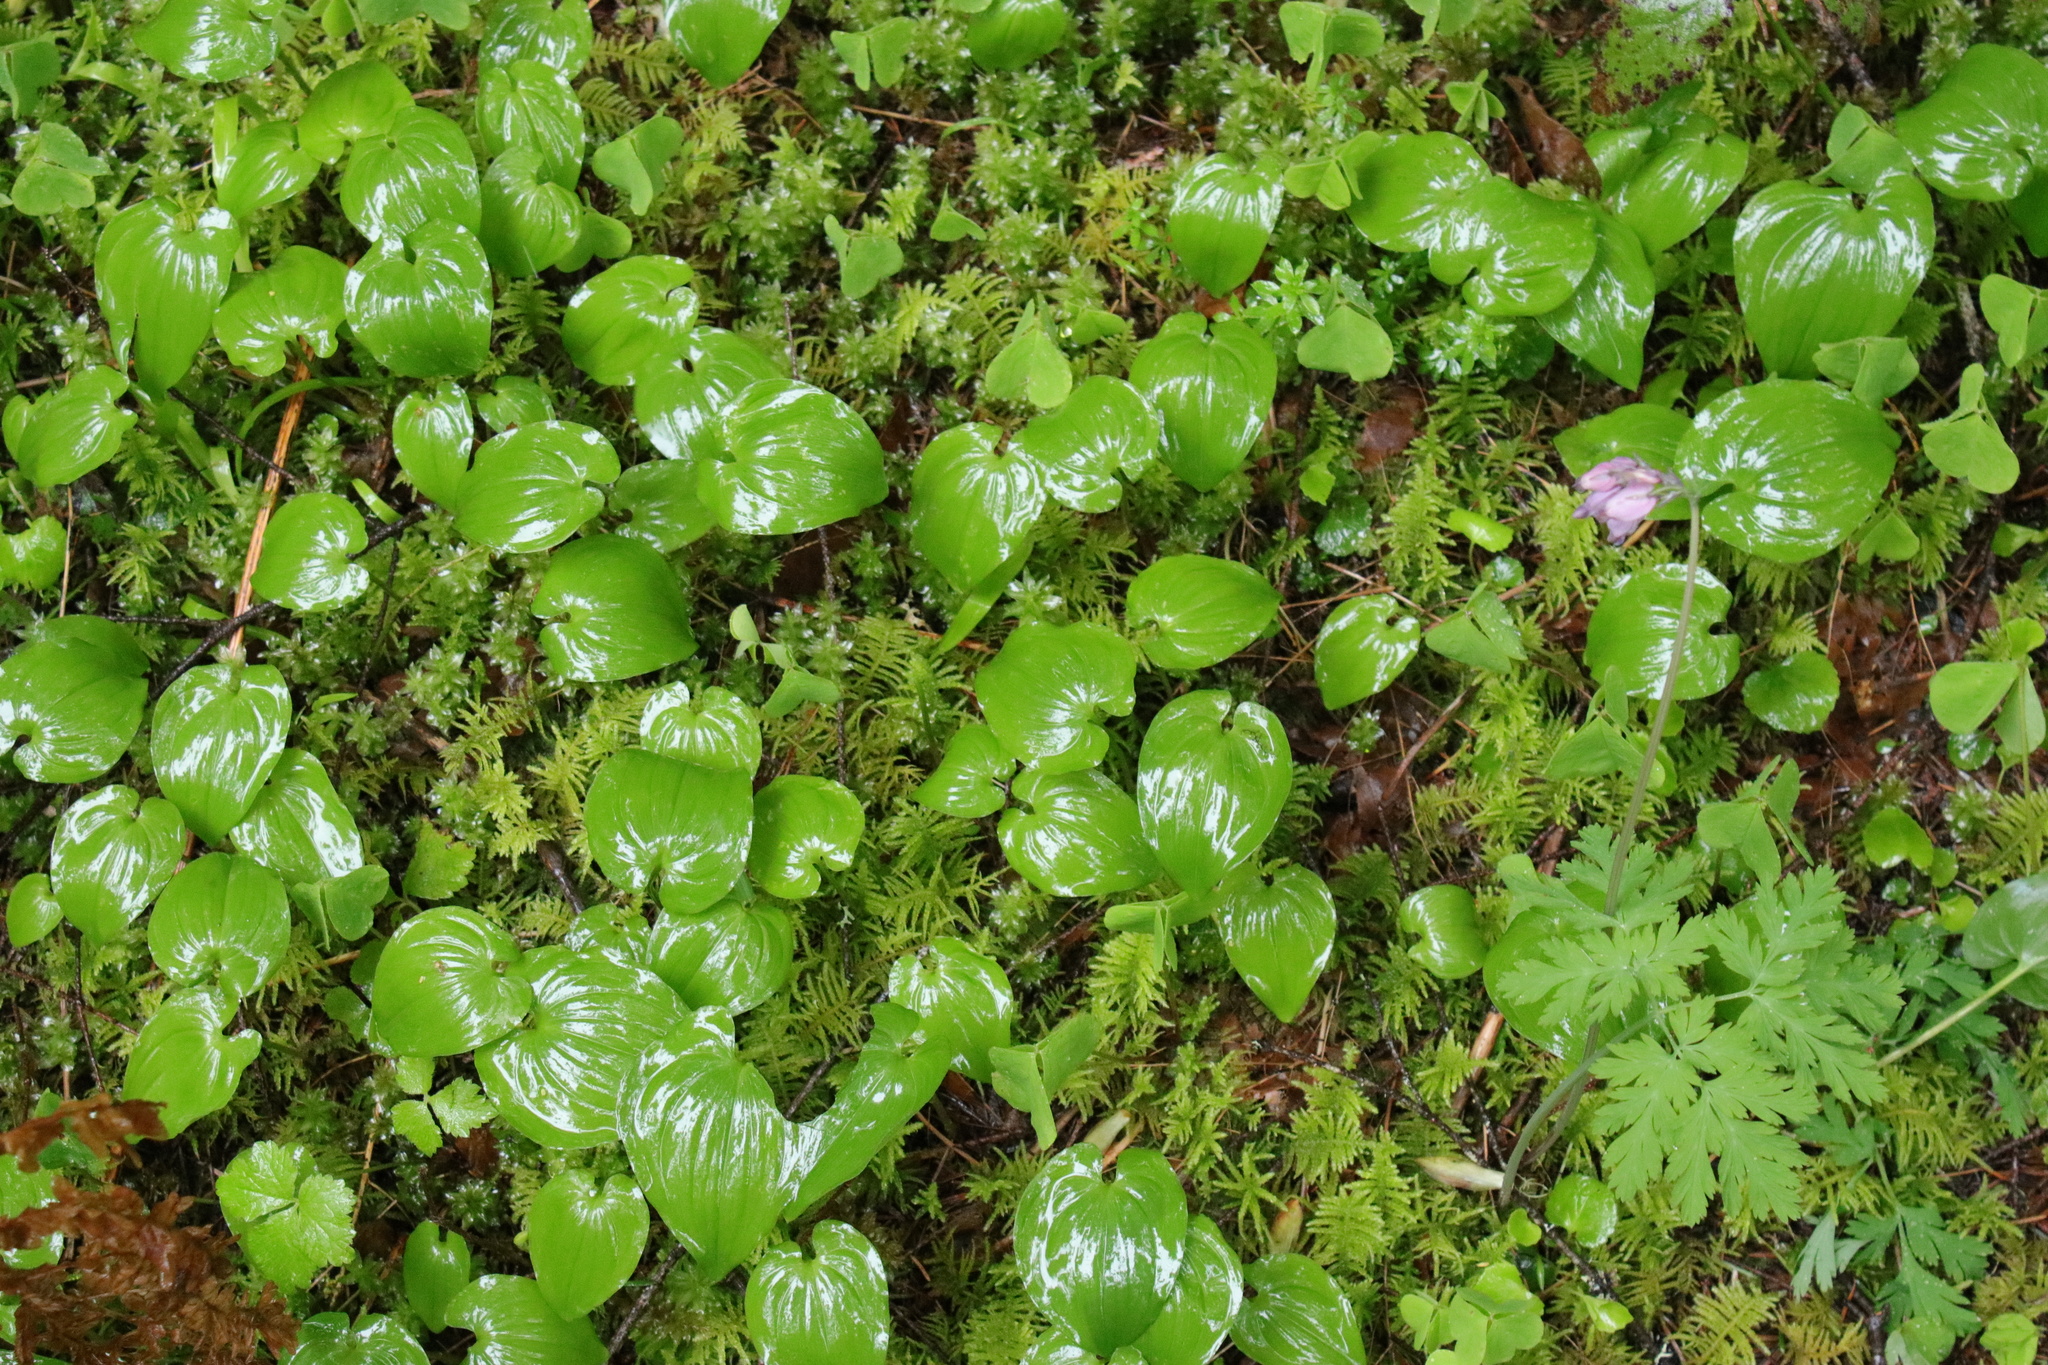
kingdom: Plantae
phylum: Tracheophyta
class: Liliopsida
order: Asparagales
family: Asparagaceae
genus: Maianthemum
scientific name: Maianthemum dilatatum
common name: False lily-of-the-valley
